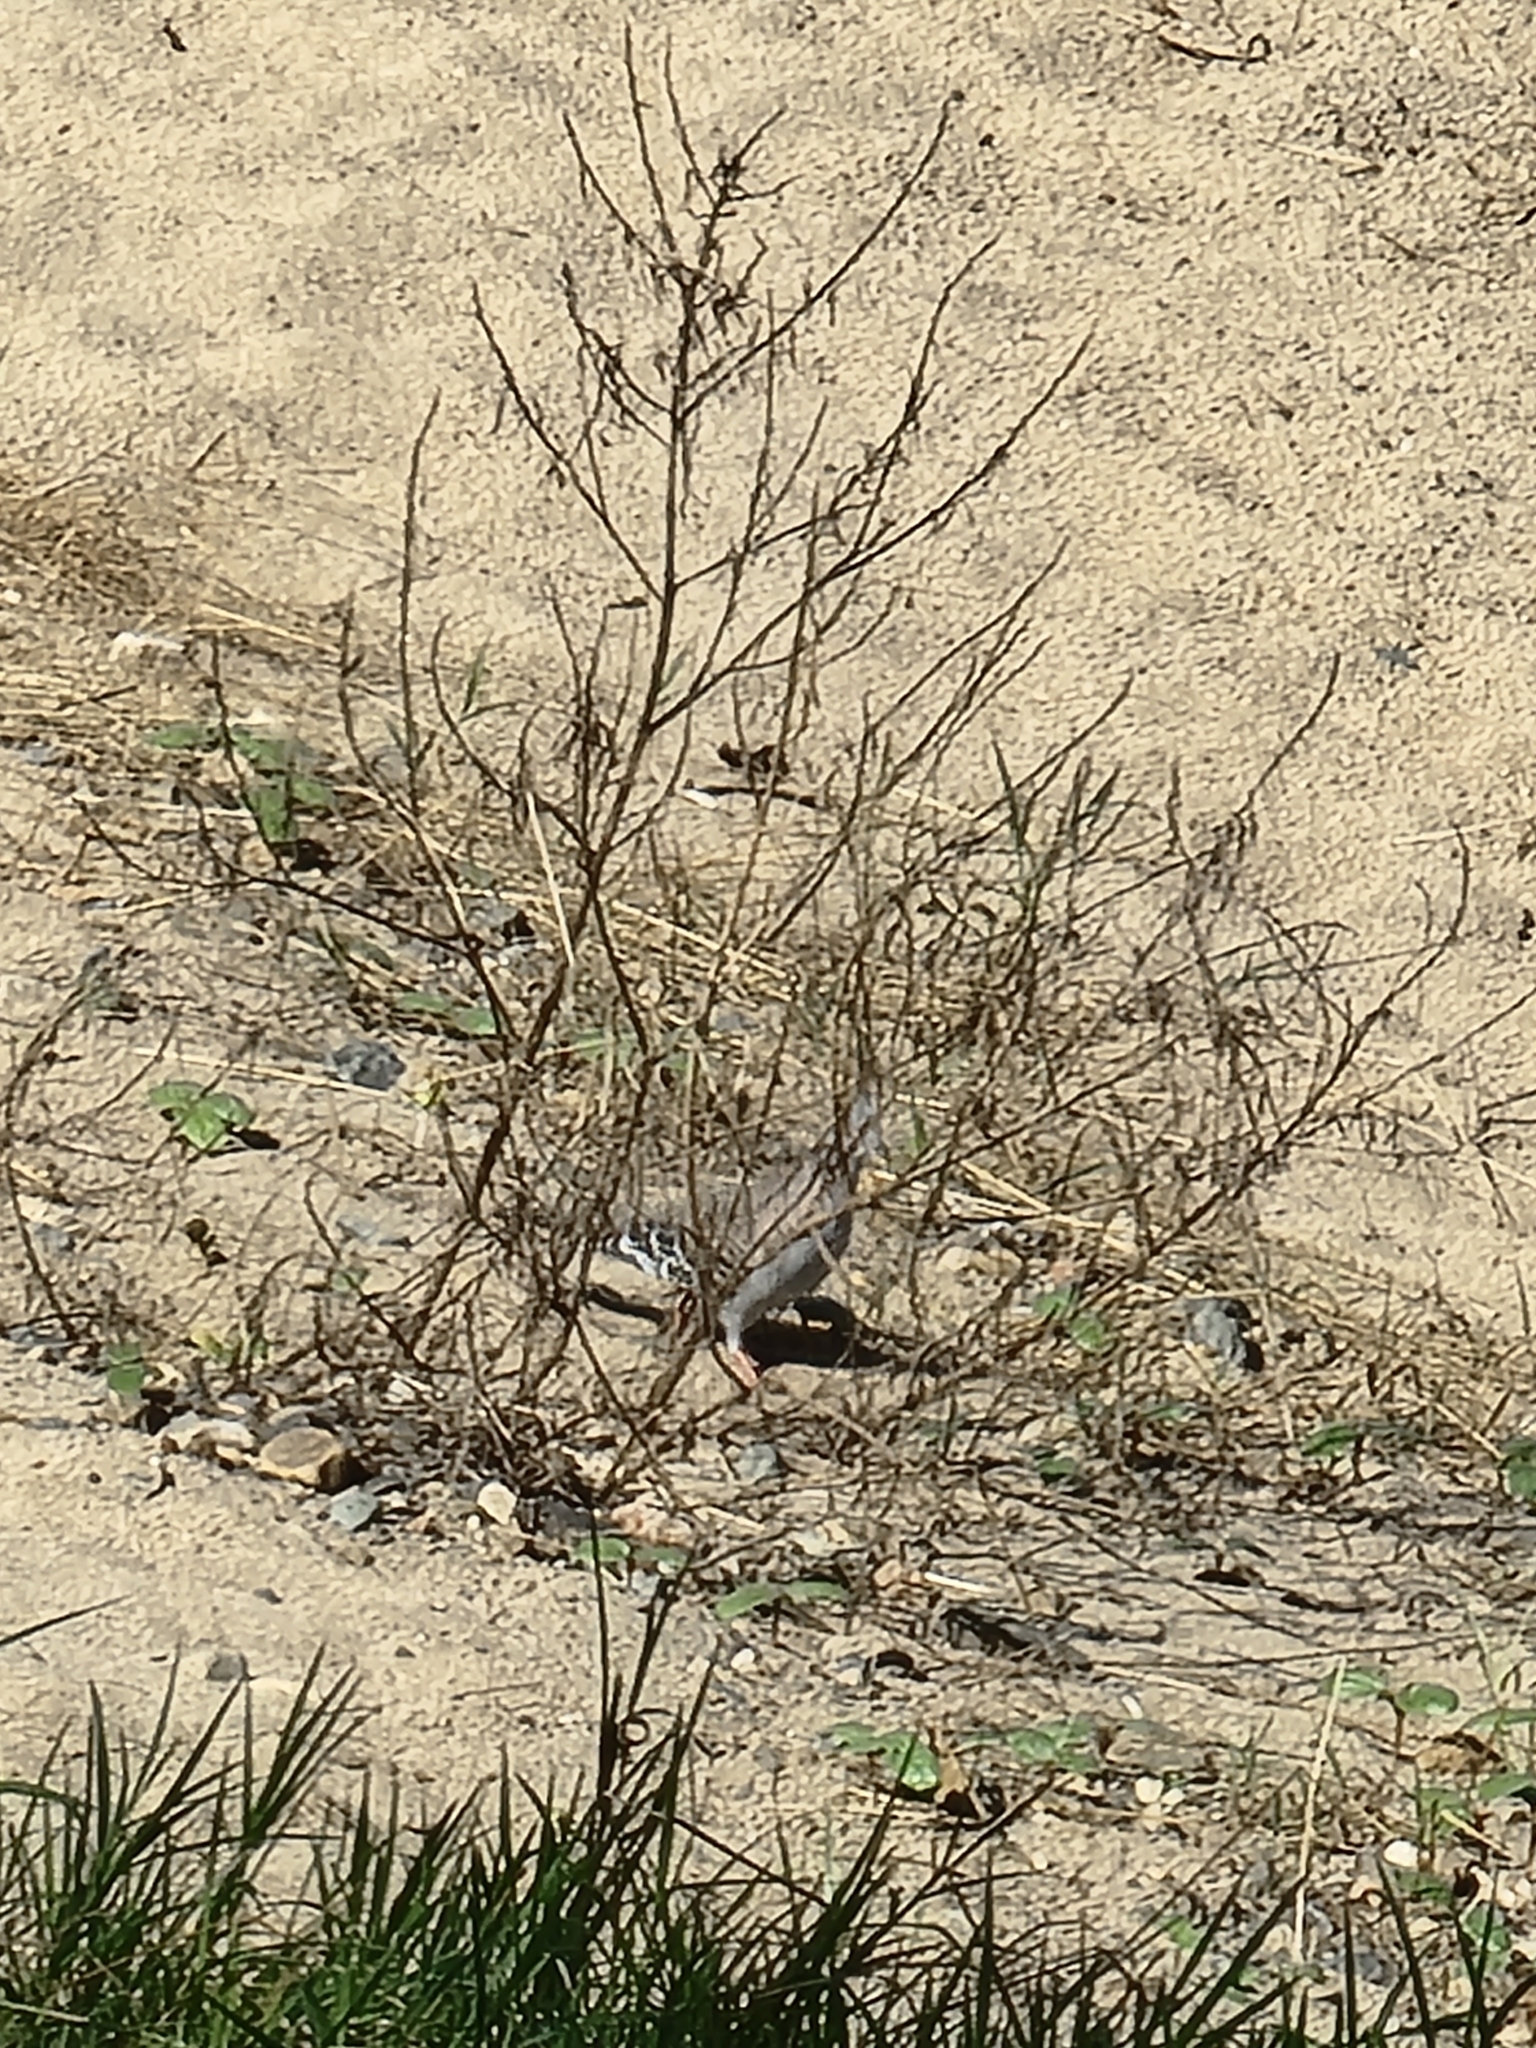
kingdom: Animalia
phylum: Chordata
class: Aves
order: Columbiformes
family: Columbidae
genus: Ocyphaps
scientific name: Ocyphaps lophotes
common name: Crested pigeon
